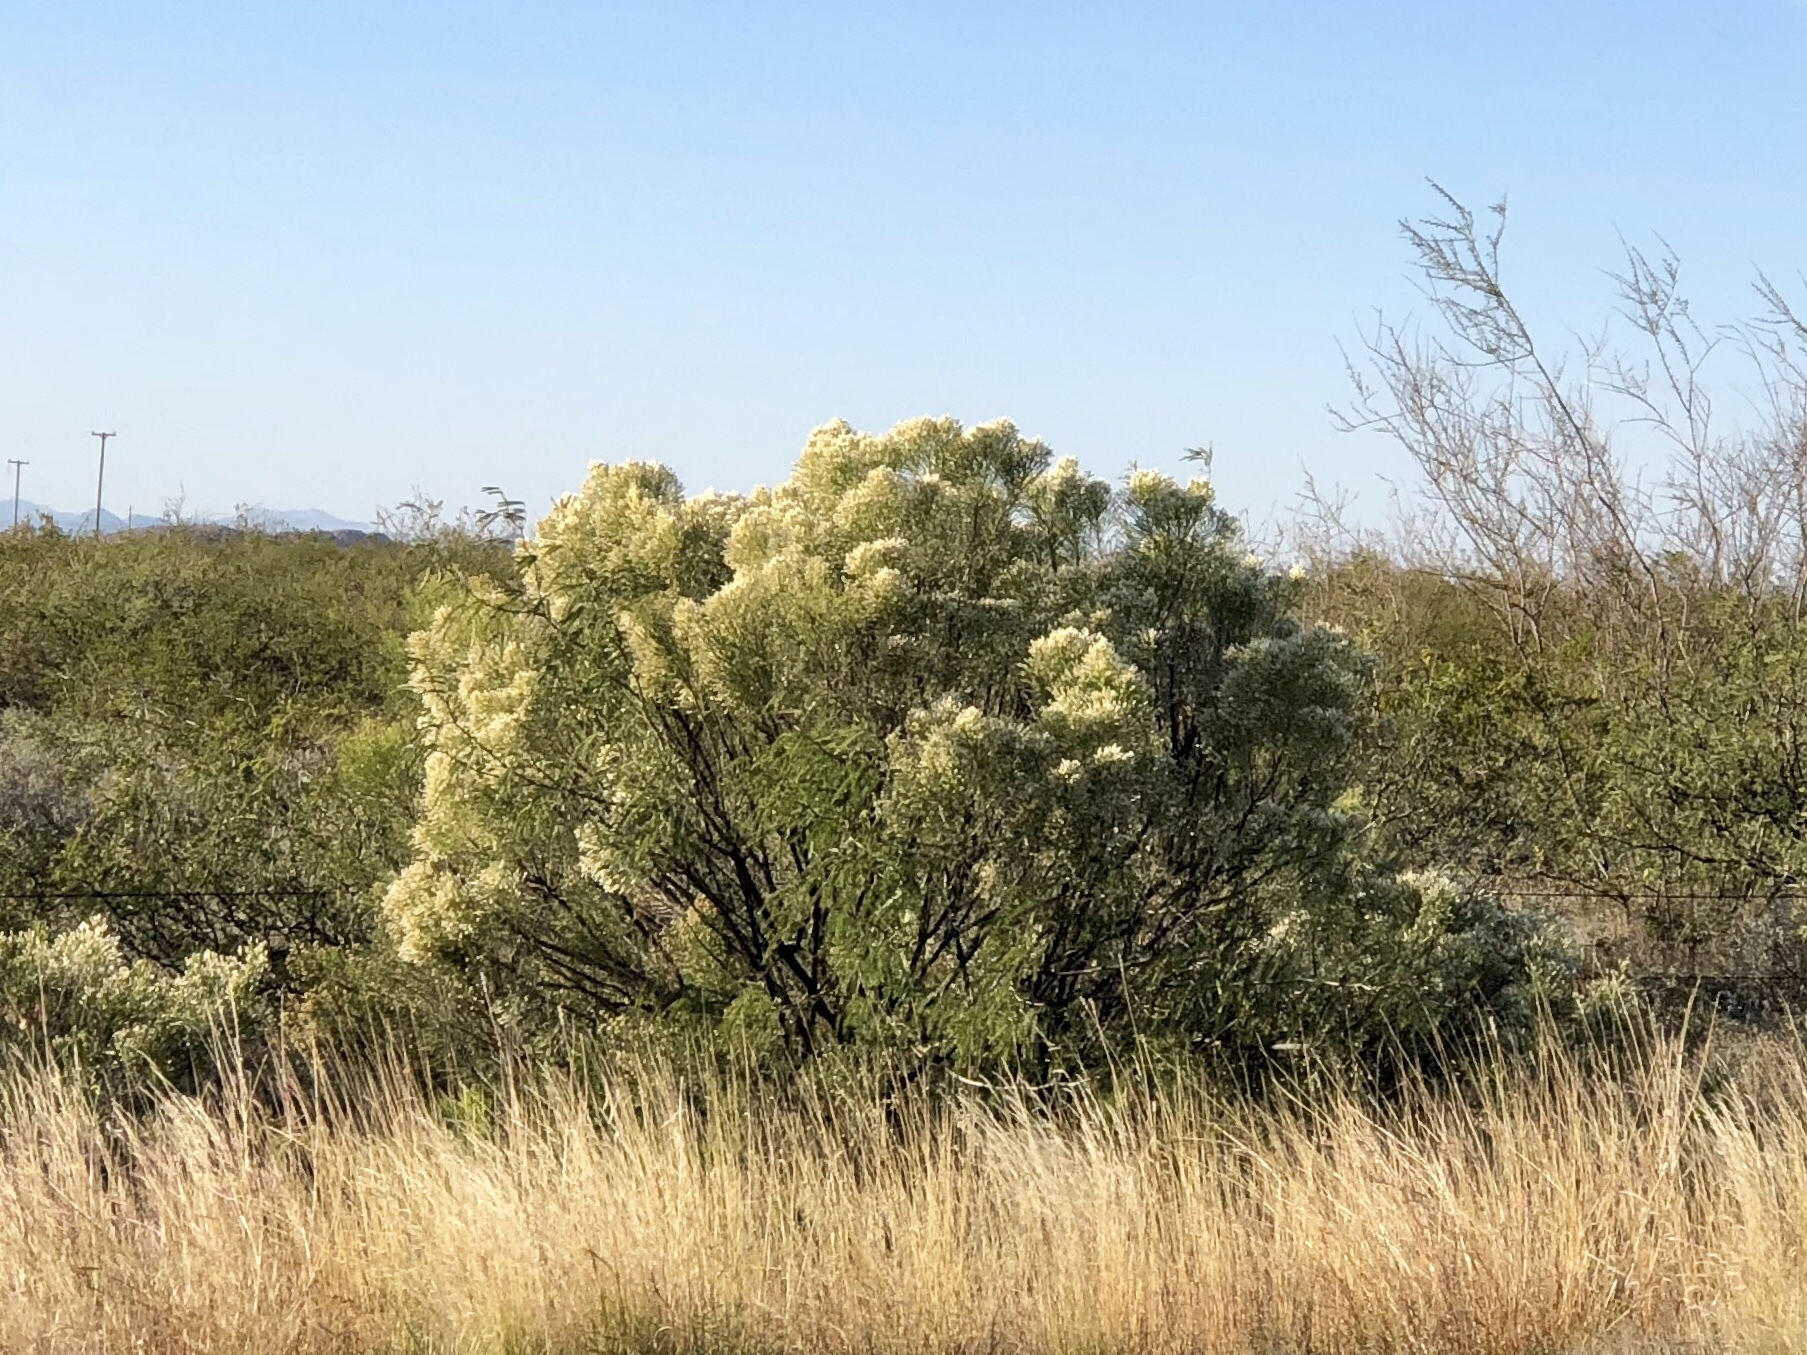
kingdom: Plantae
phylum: Tracheophyta
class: Magnoliopsida
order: Asterales
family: Asteraceae
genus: Baccharis
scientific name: Baccharis sarothroides
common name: Desert-broom
